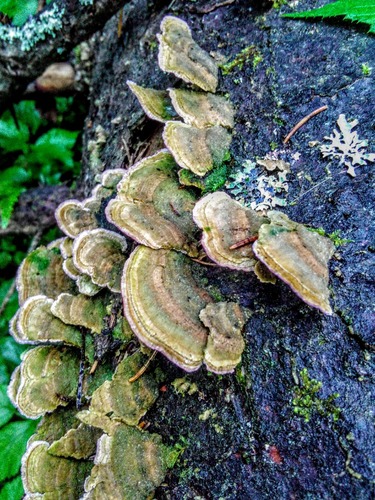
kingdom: Fungi
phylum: Basidiomycota
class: Agaricomycetes
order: Hymenochaetales
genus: Trichaptum
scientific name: Trichaptum fuscoviolaceum
